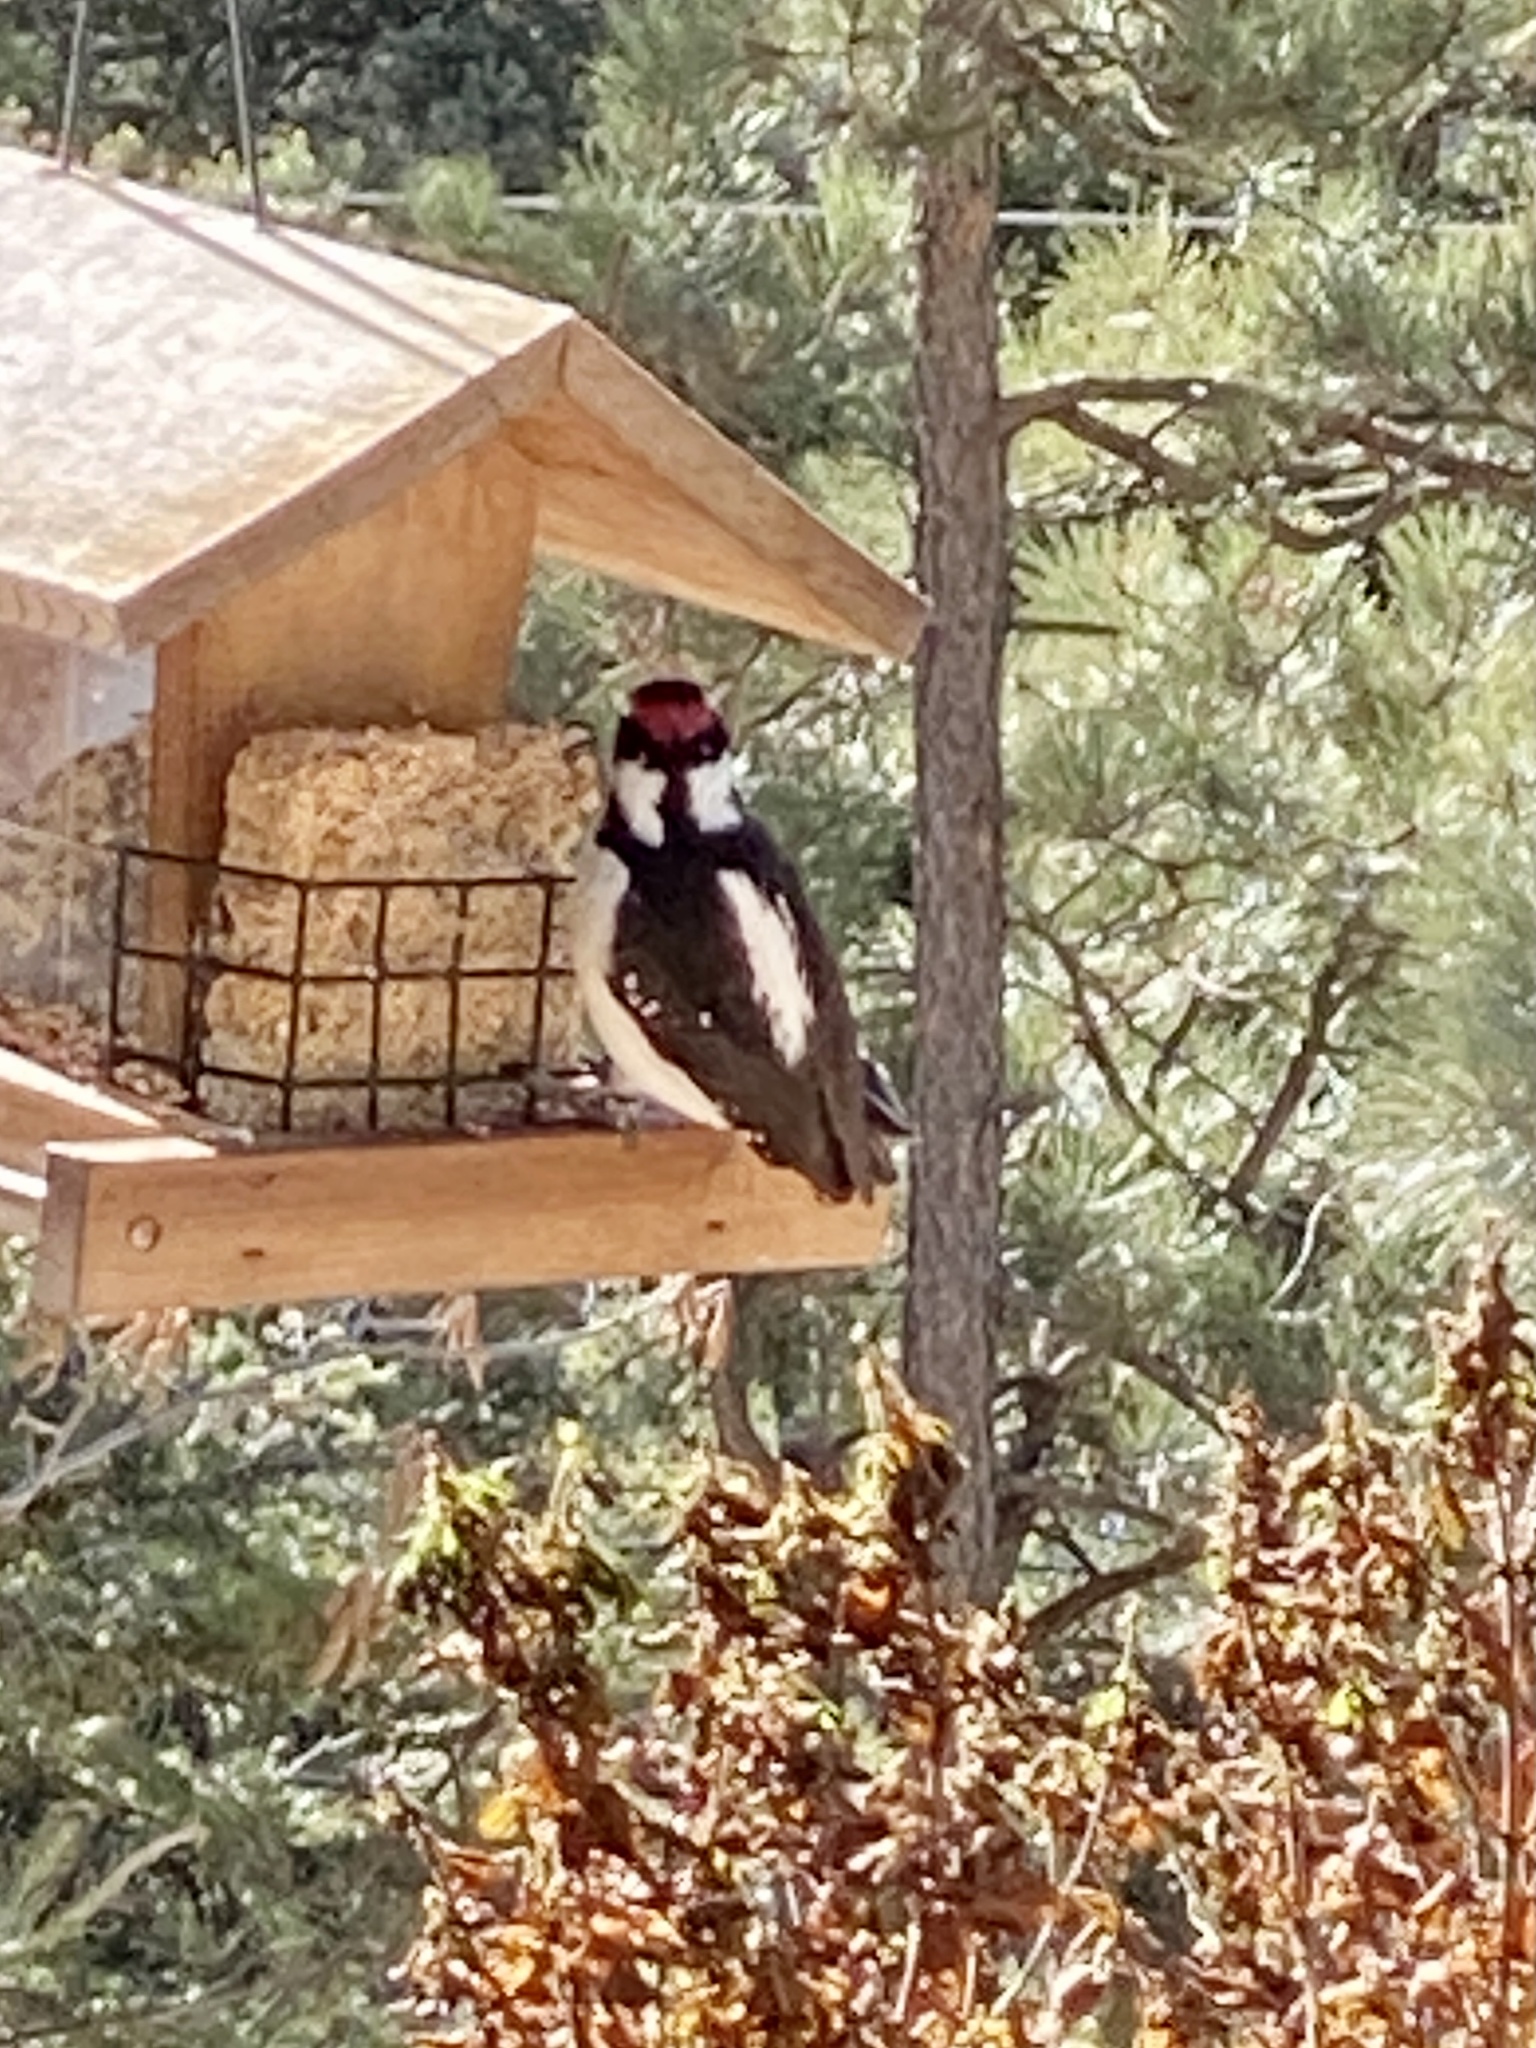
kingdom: Animalia
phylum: Chordata
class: Aves
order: Piciformes
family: Picidae
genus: Leuconotopicus
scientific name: Leuconotopicus villosus
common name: Hairy woodpecker
